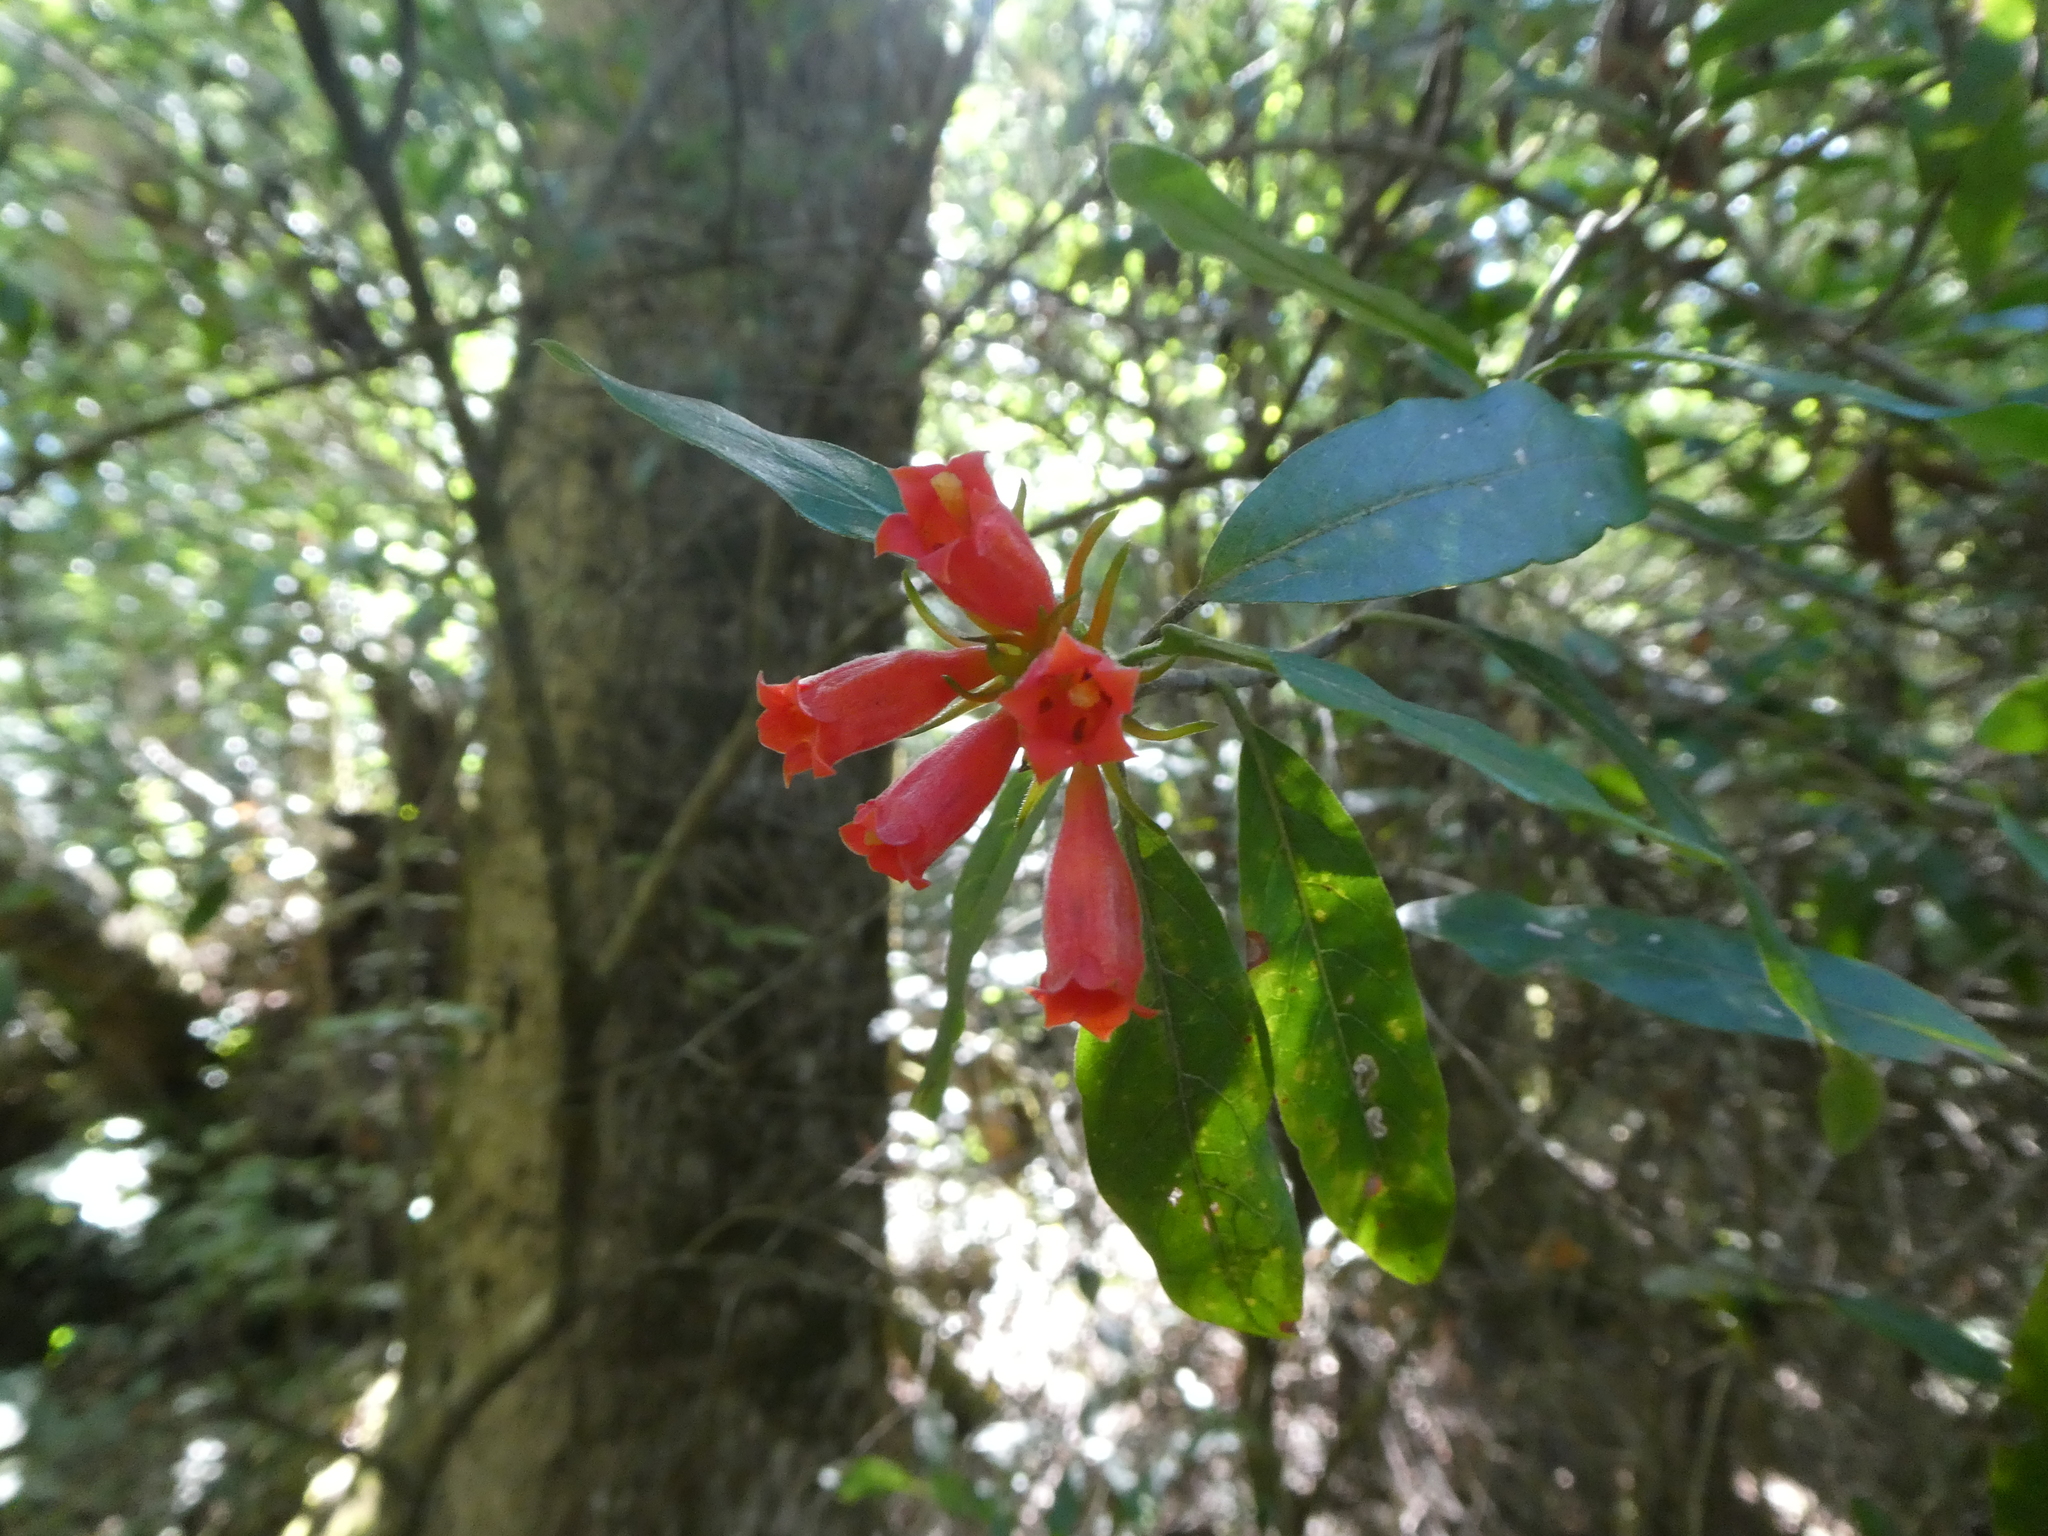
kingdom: Plantae
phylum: Tracheophyta
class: Magnoliopsida
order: Gentianales
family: Rubiaceae
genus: Burchellia
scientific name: Burchellia bubalina
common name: Wild pomegranate
